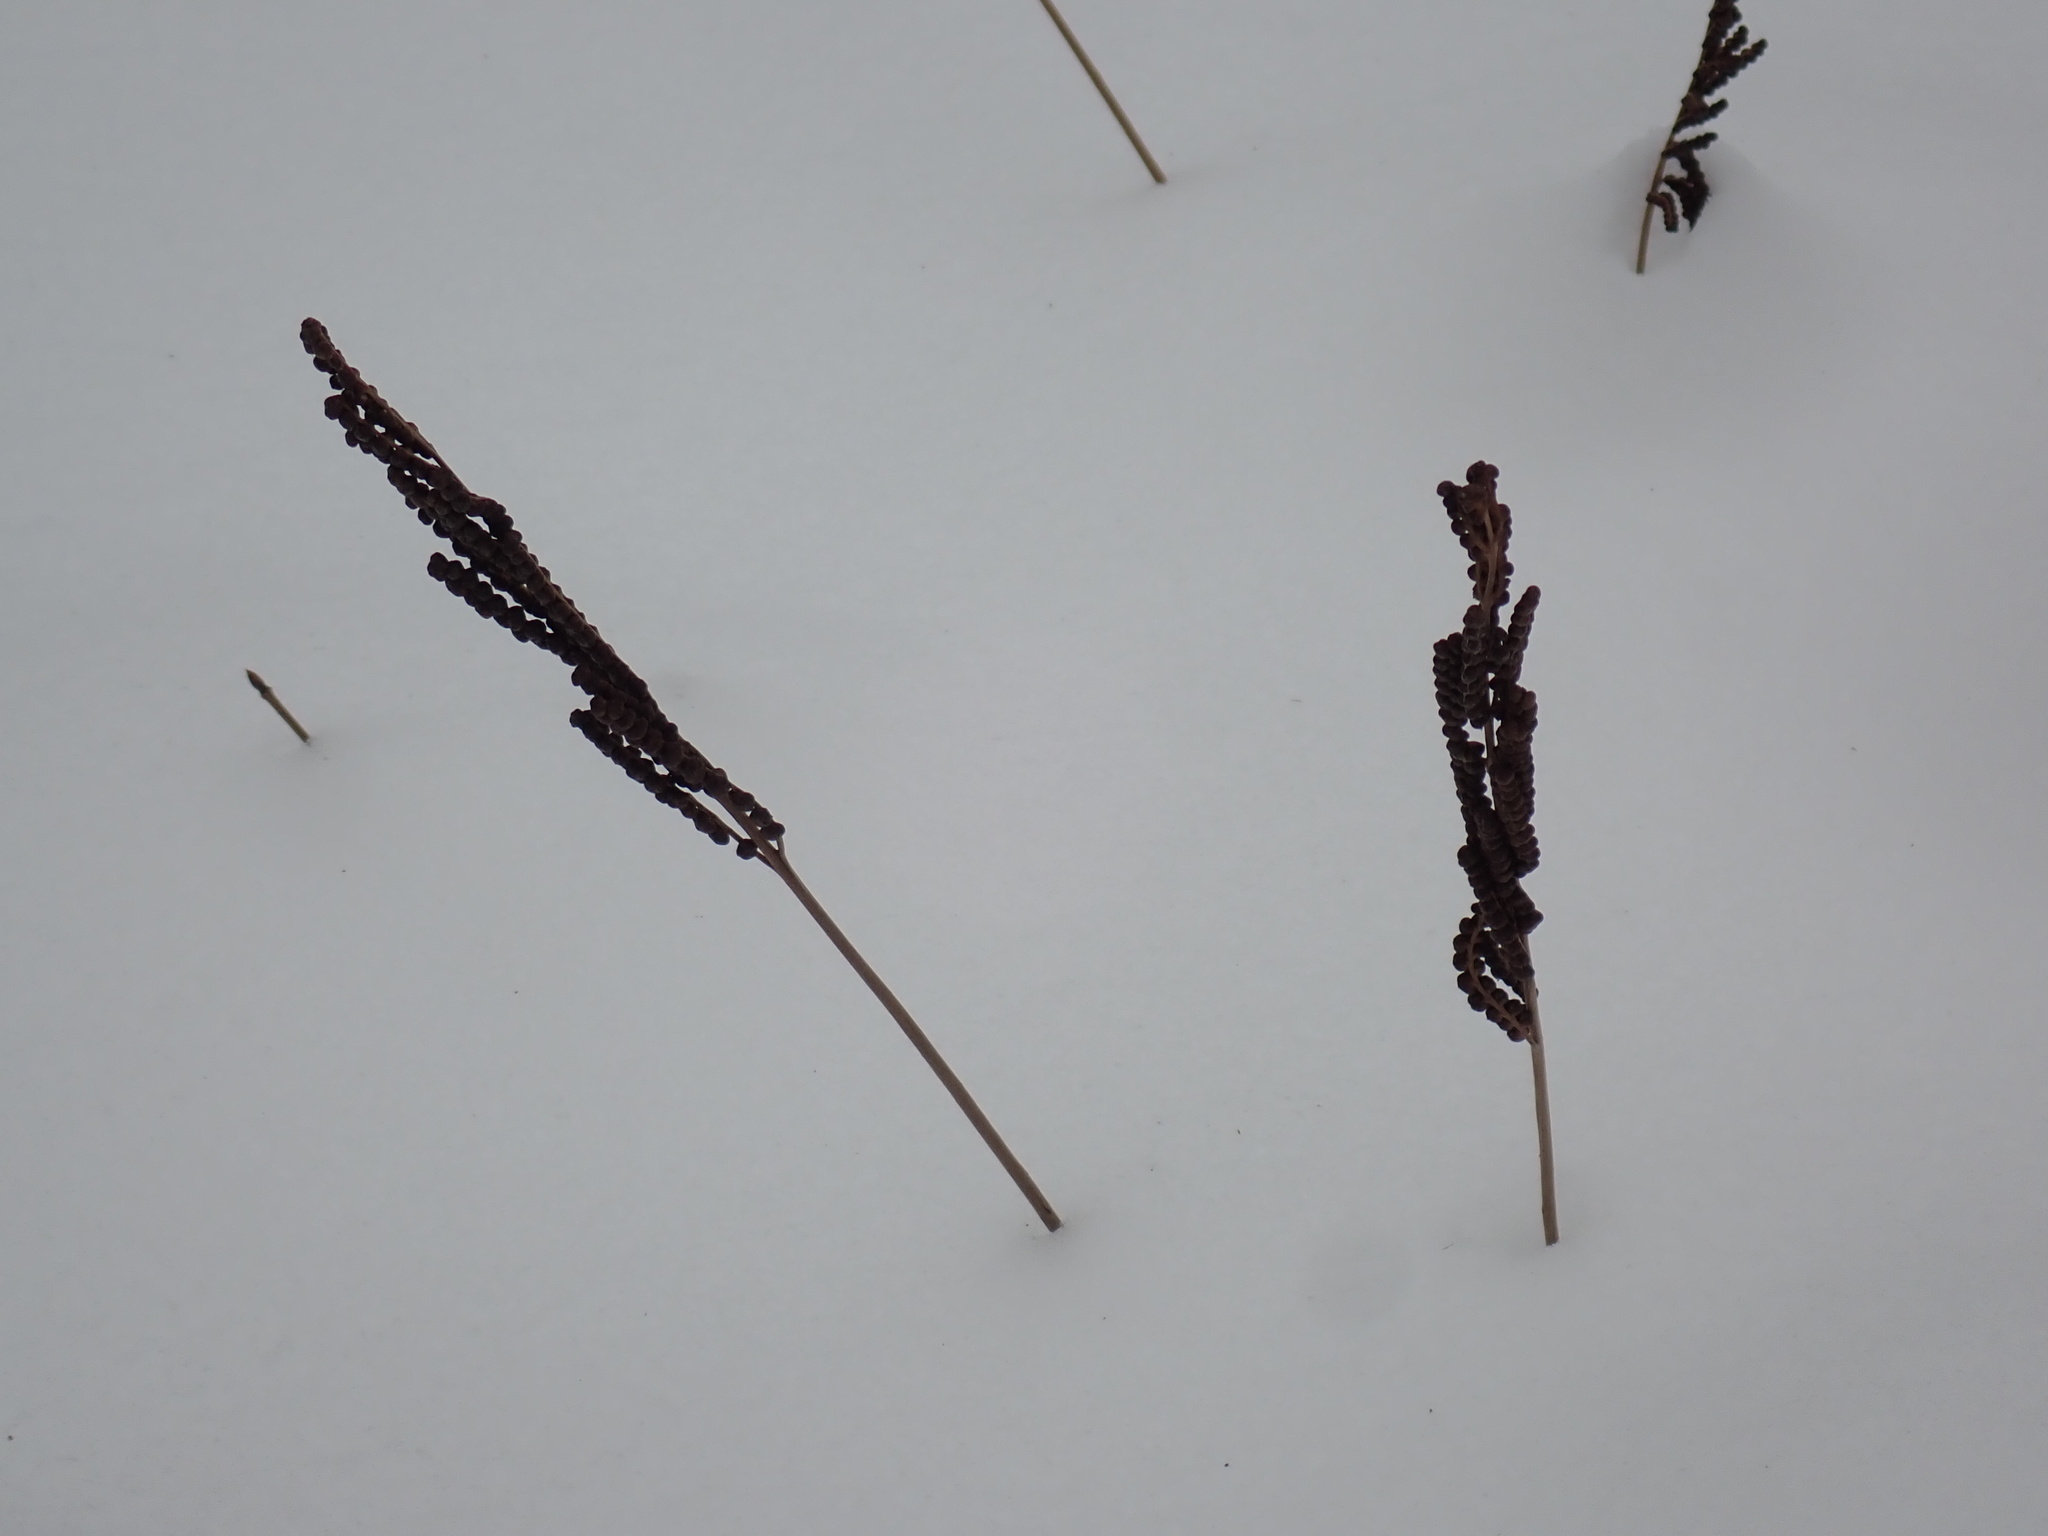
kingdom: Plantae
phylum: Tracheophyta
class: Polypodiopsida
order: Polypodiales
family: Onocleaceae
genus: Onoclea
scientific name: Onoclea sensibilis
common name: Sensitive fern
